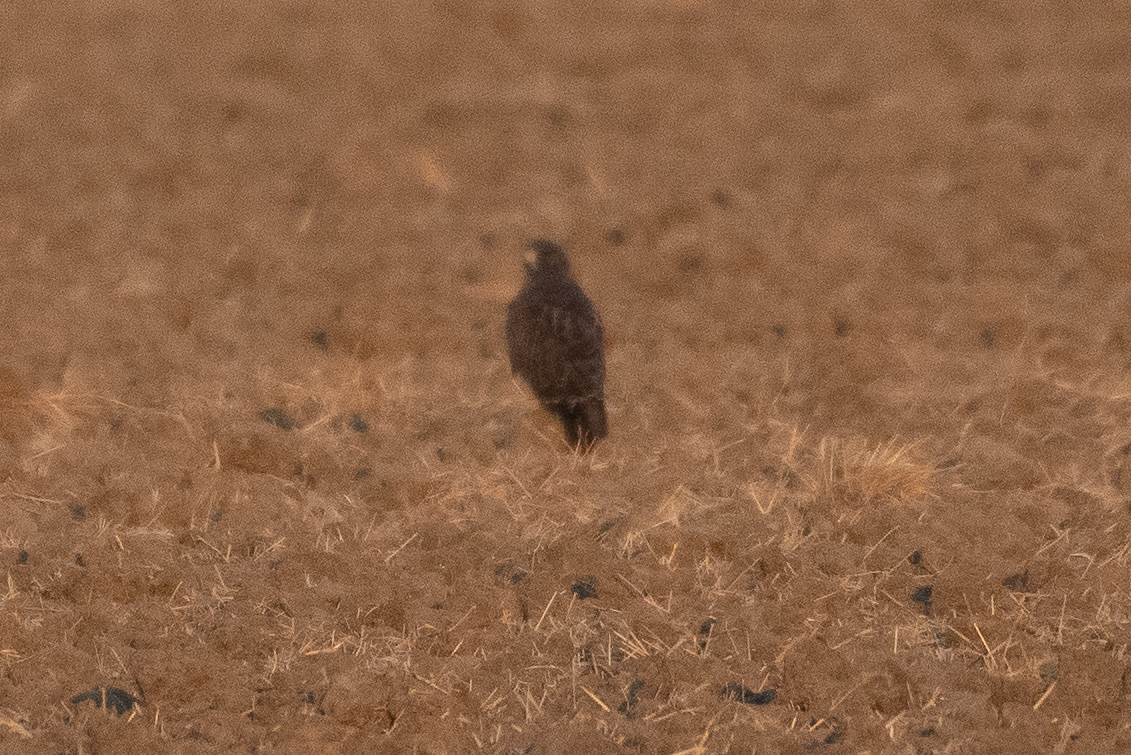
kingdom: Animalia
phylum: Chordata
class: Aves
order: Accipitriformes
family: Accipitridae
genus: Buteo
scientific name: Buteo swainsoni
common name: Swainson's hawk
